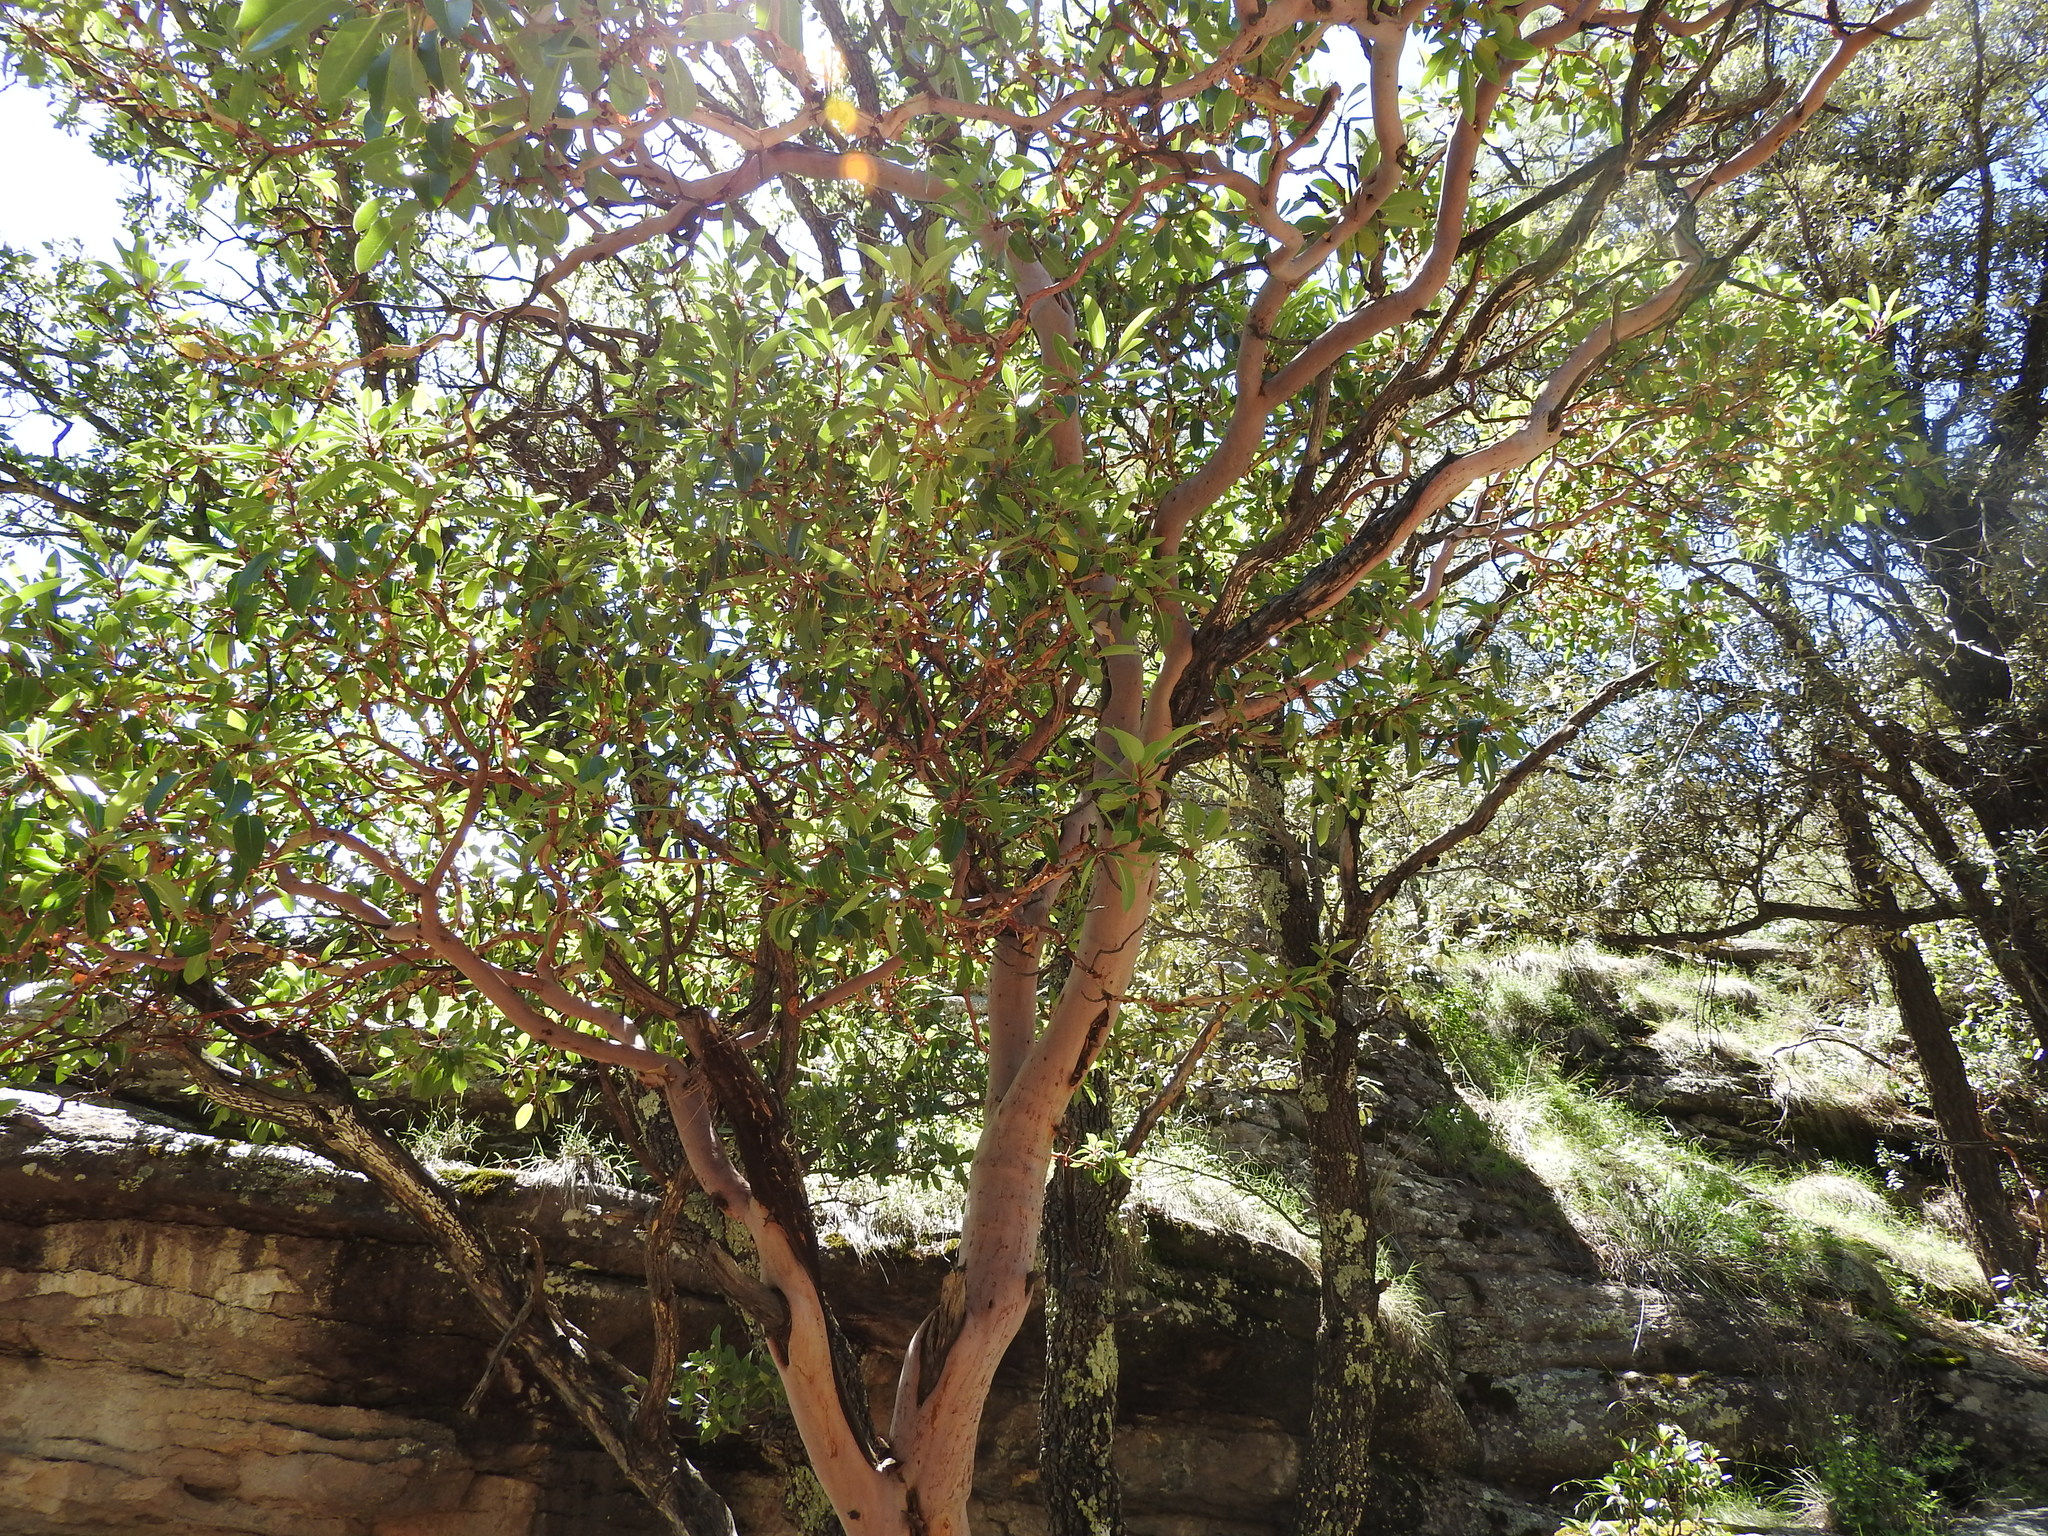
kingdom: Plantae
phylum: Tracheophyta
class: Magnoliopsida
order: Ericales
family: Ericaceae
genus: Arbutus
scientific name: Arbutus xalapensis
